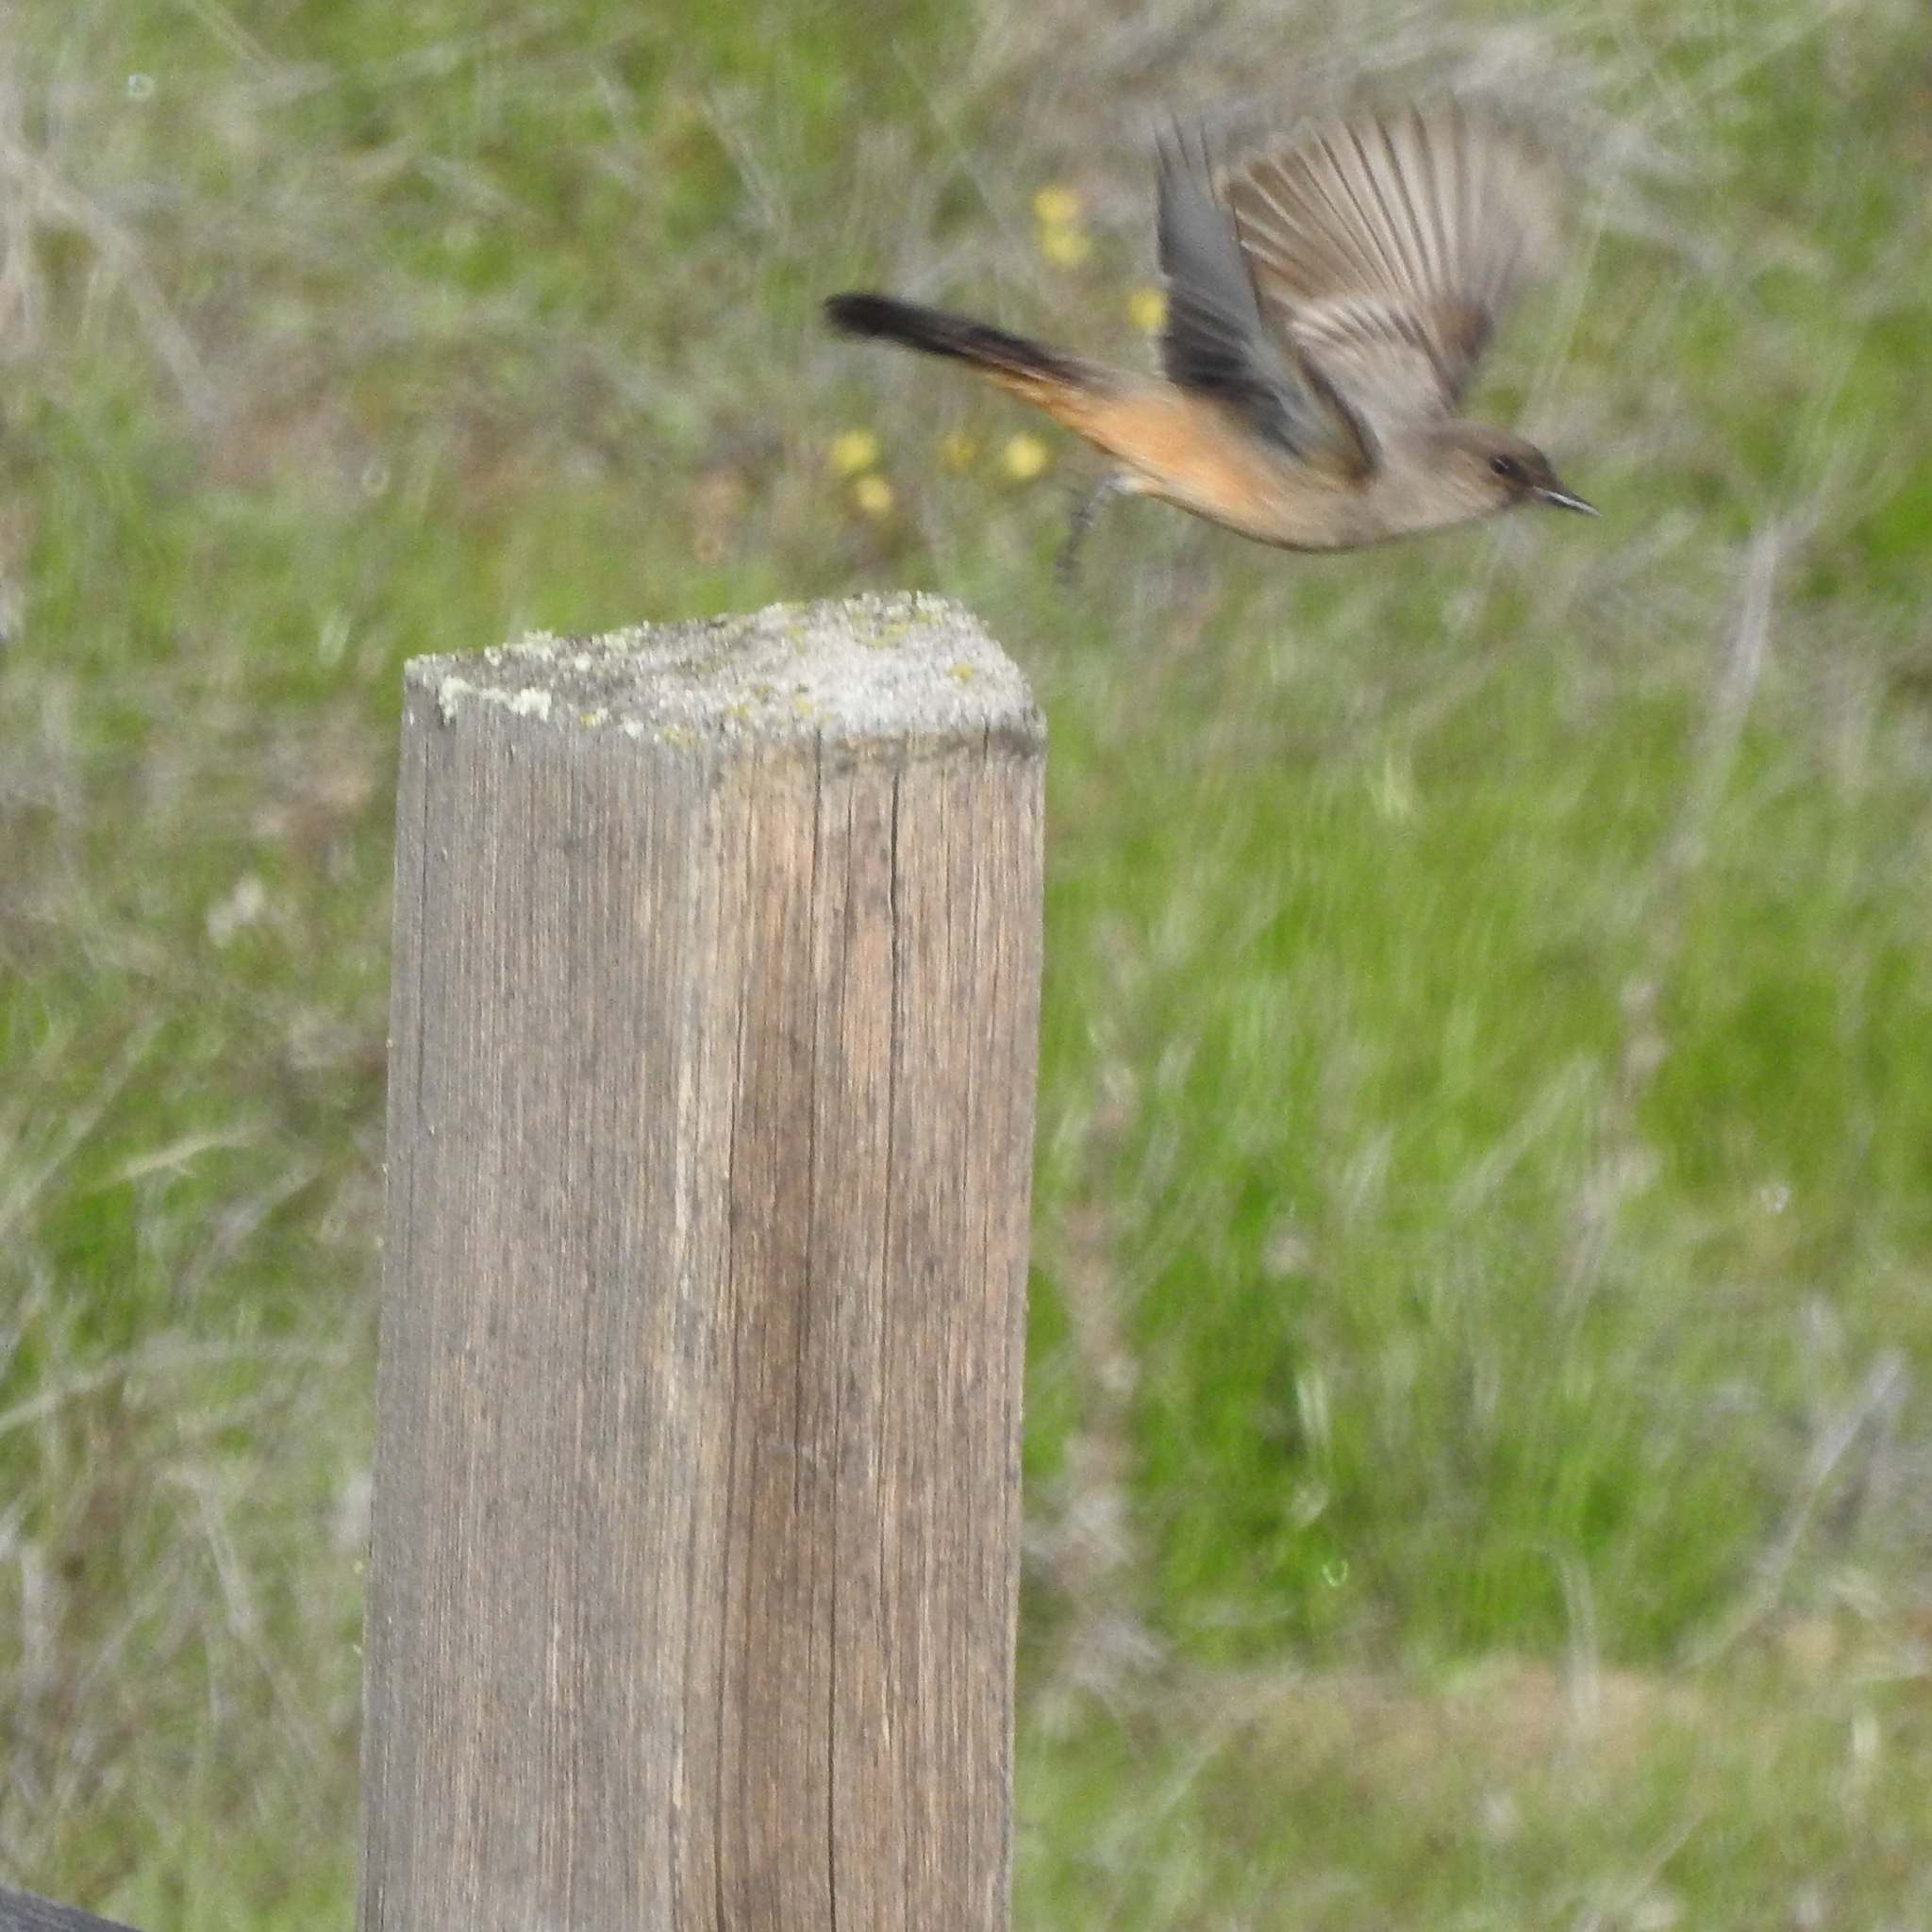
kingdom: Animalia
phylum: Chordata
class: Aves
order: Passeriformes
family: Tyrannidae
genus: Sayornis
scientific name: Sayornis saya
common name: Say's phoebe
